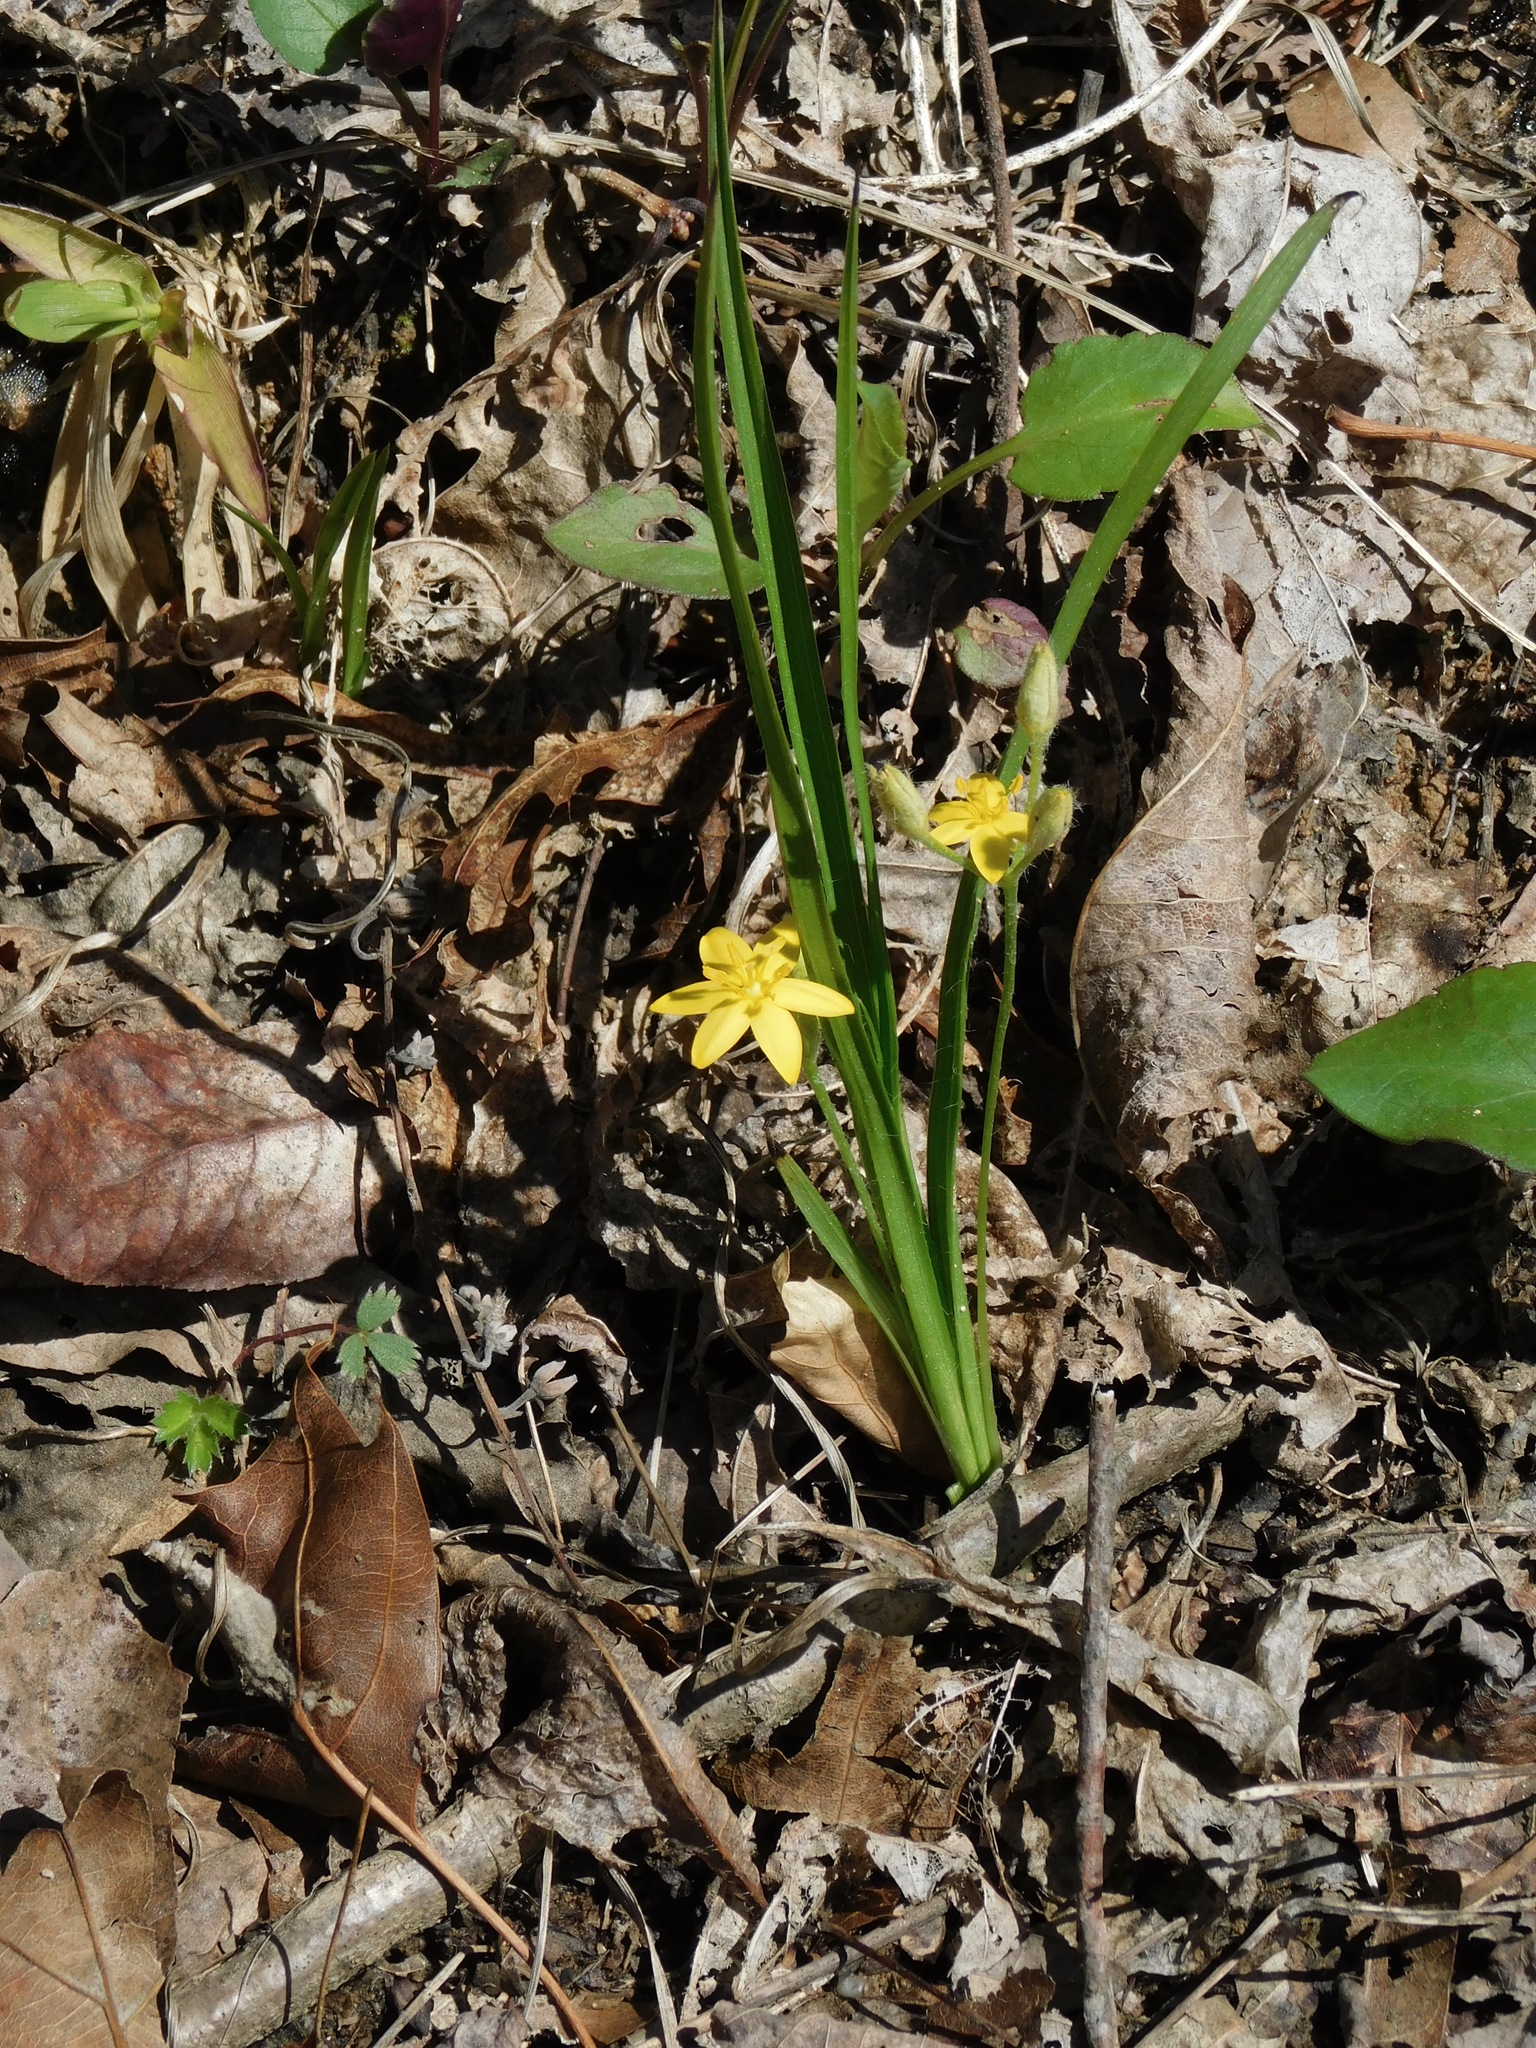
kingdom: Plantae
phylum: Tracheophyta
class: Liliopsida
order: Asparagales
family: Hypoxidaceae
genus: Hypoxis
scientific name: Hypoxis hirsuta
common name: Common goldstar
